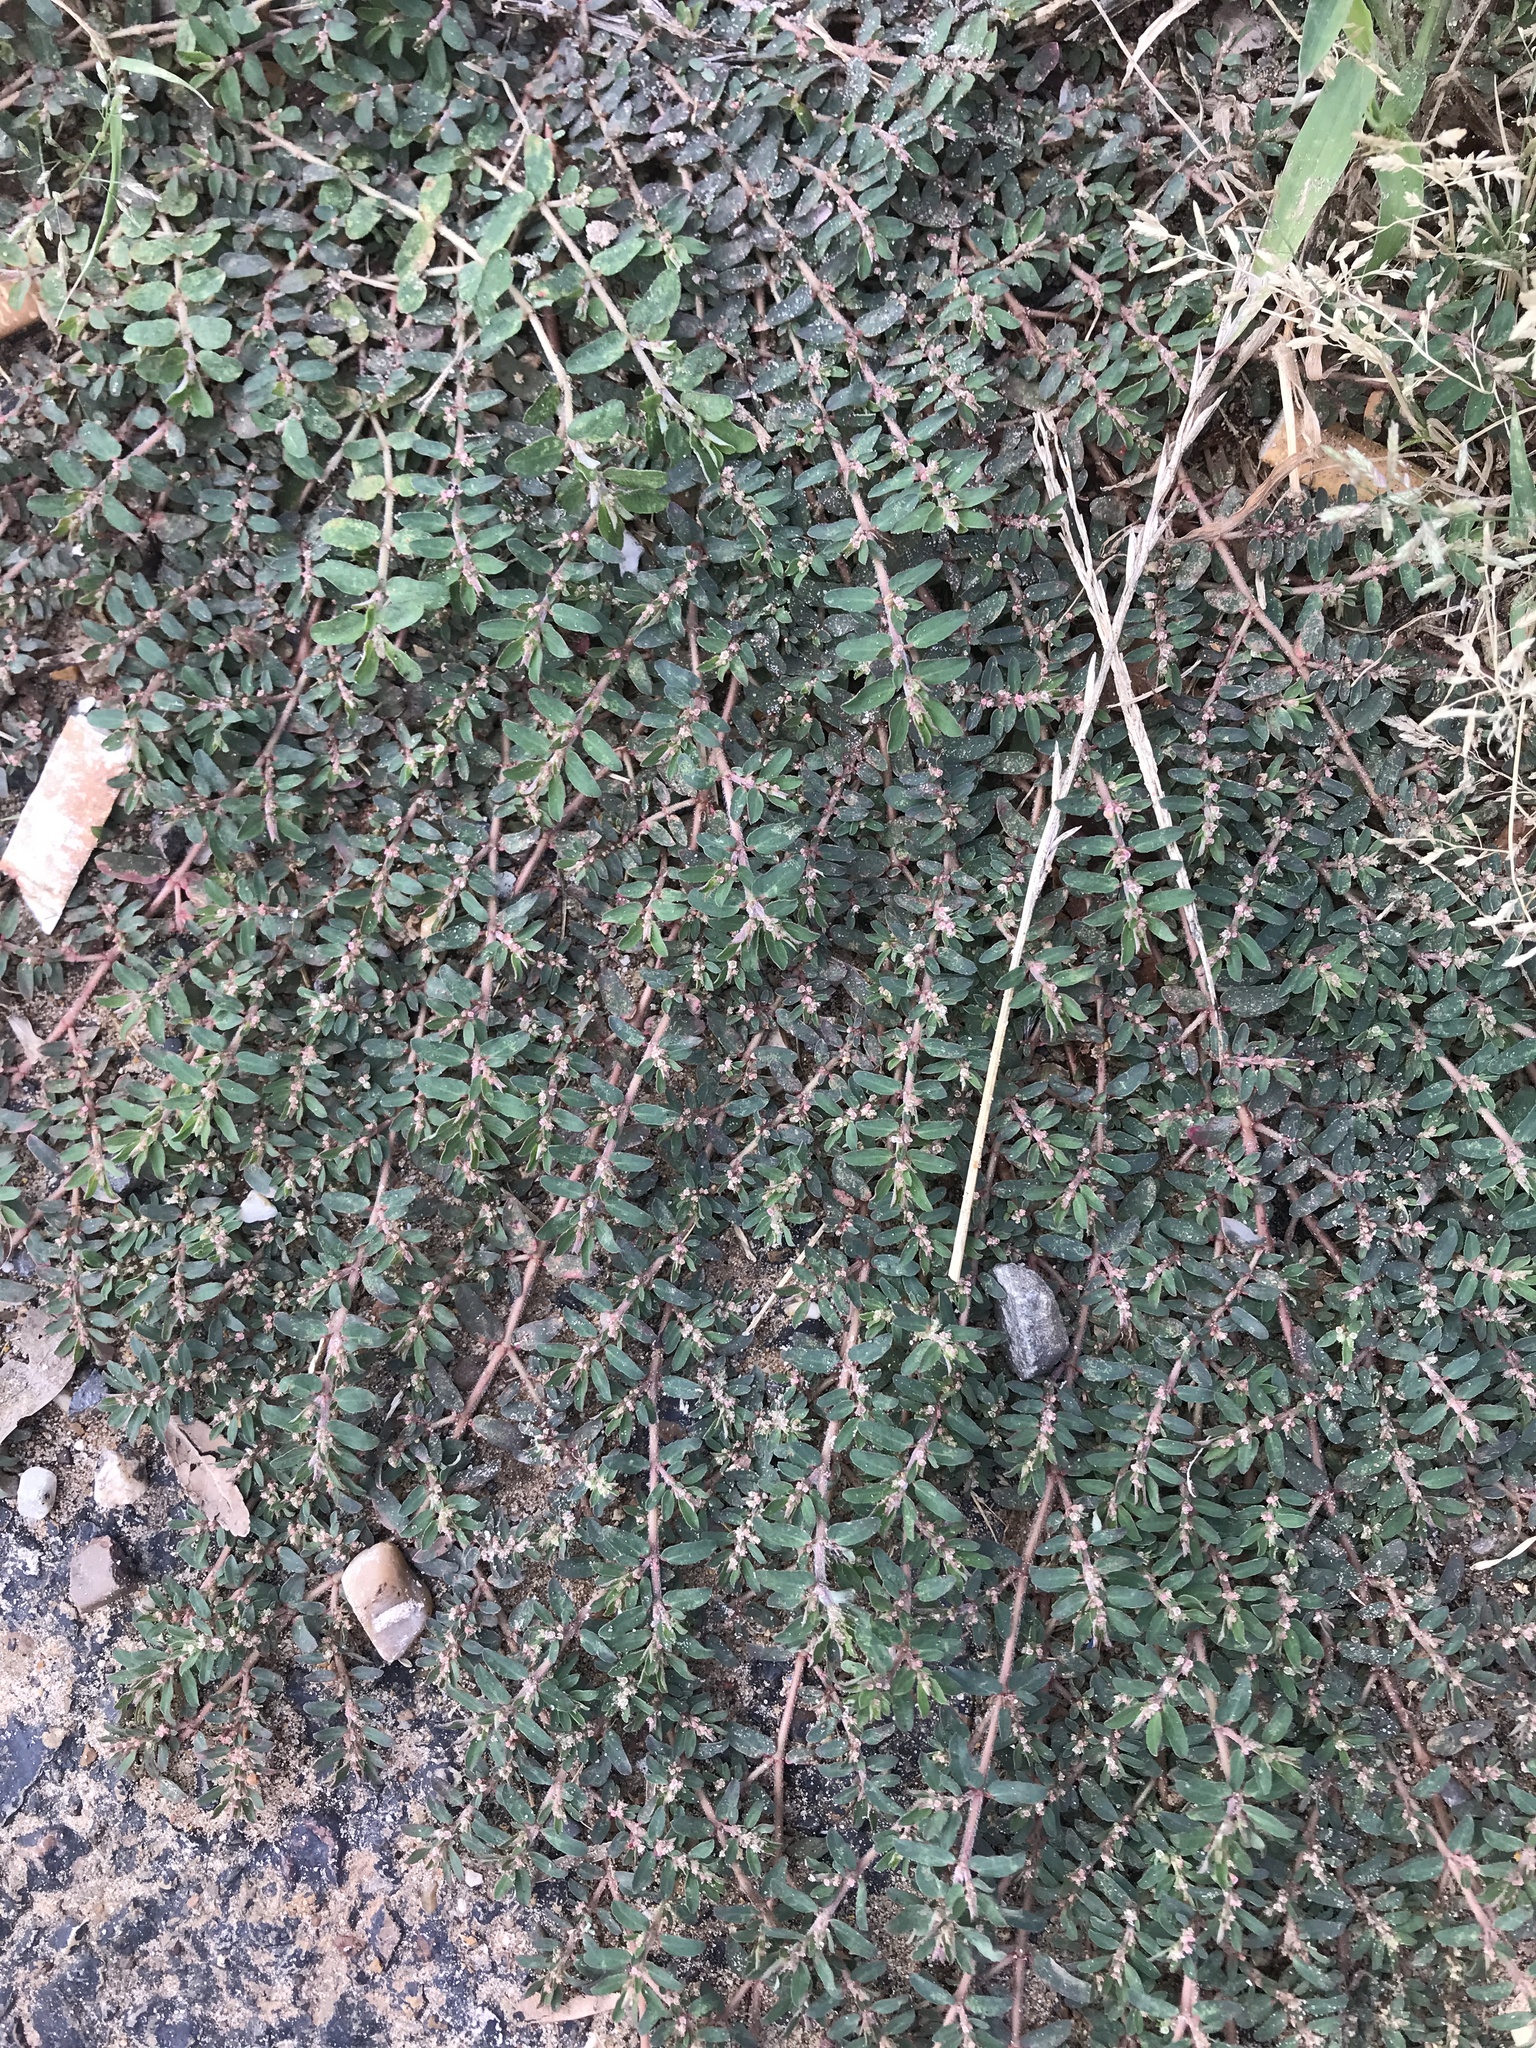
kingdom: Plantae
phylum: Tracheophyta
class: Magnoliopsida
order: Malpighiales
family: Euphorbiaceae
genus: Euphorbia
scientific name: Euphorbia maculata
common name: Spotted spurge
